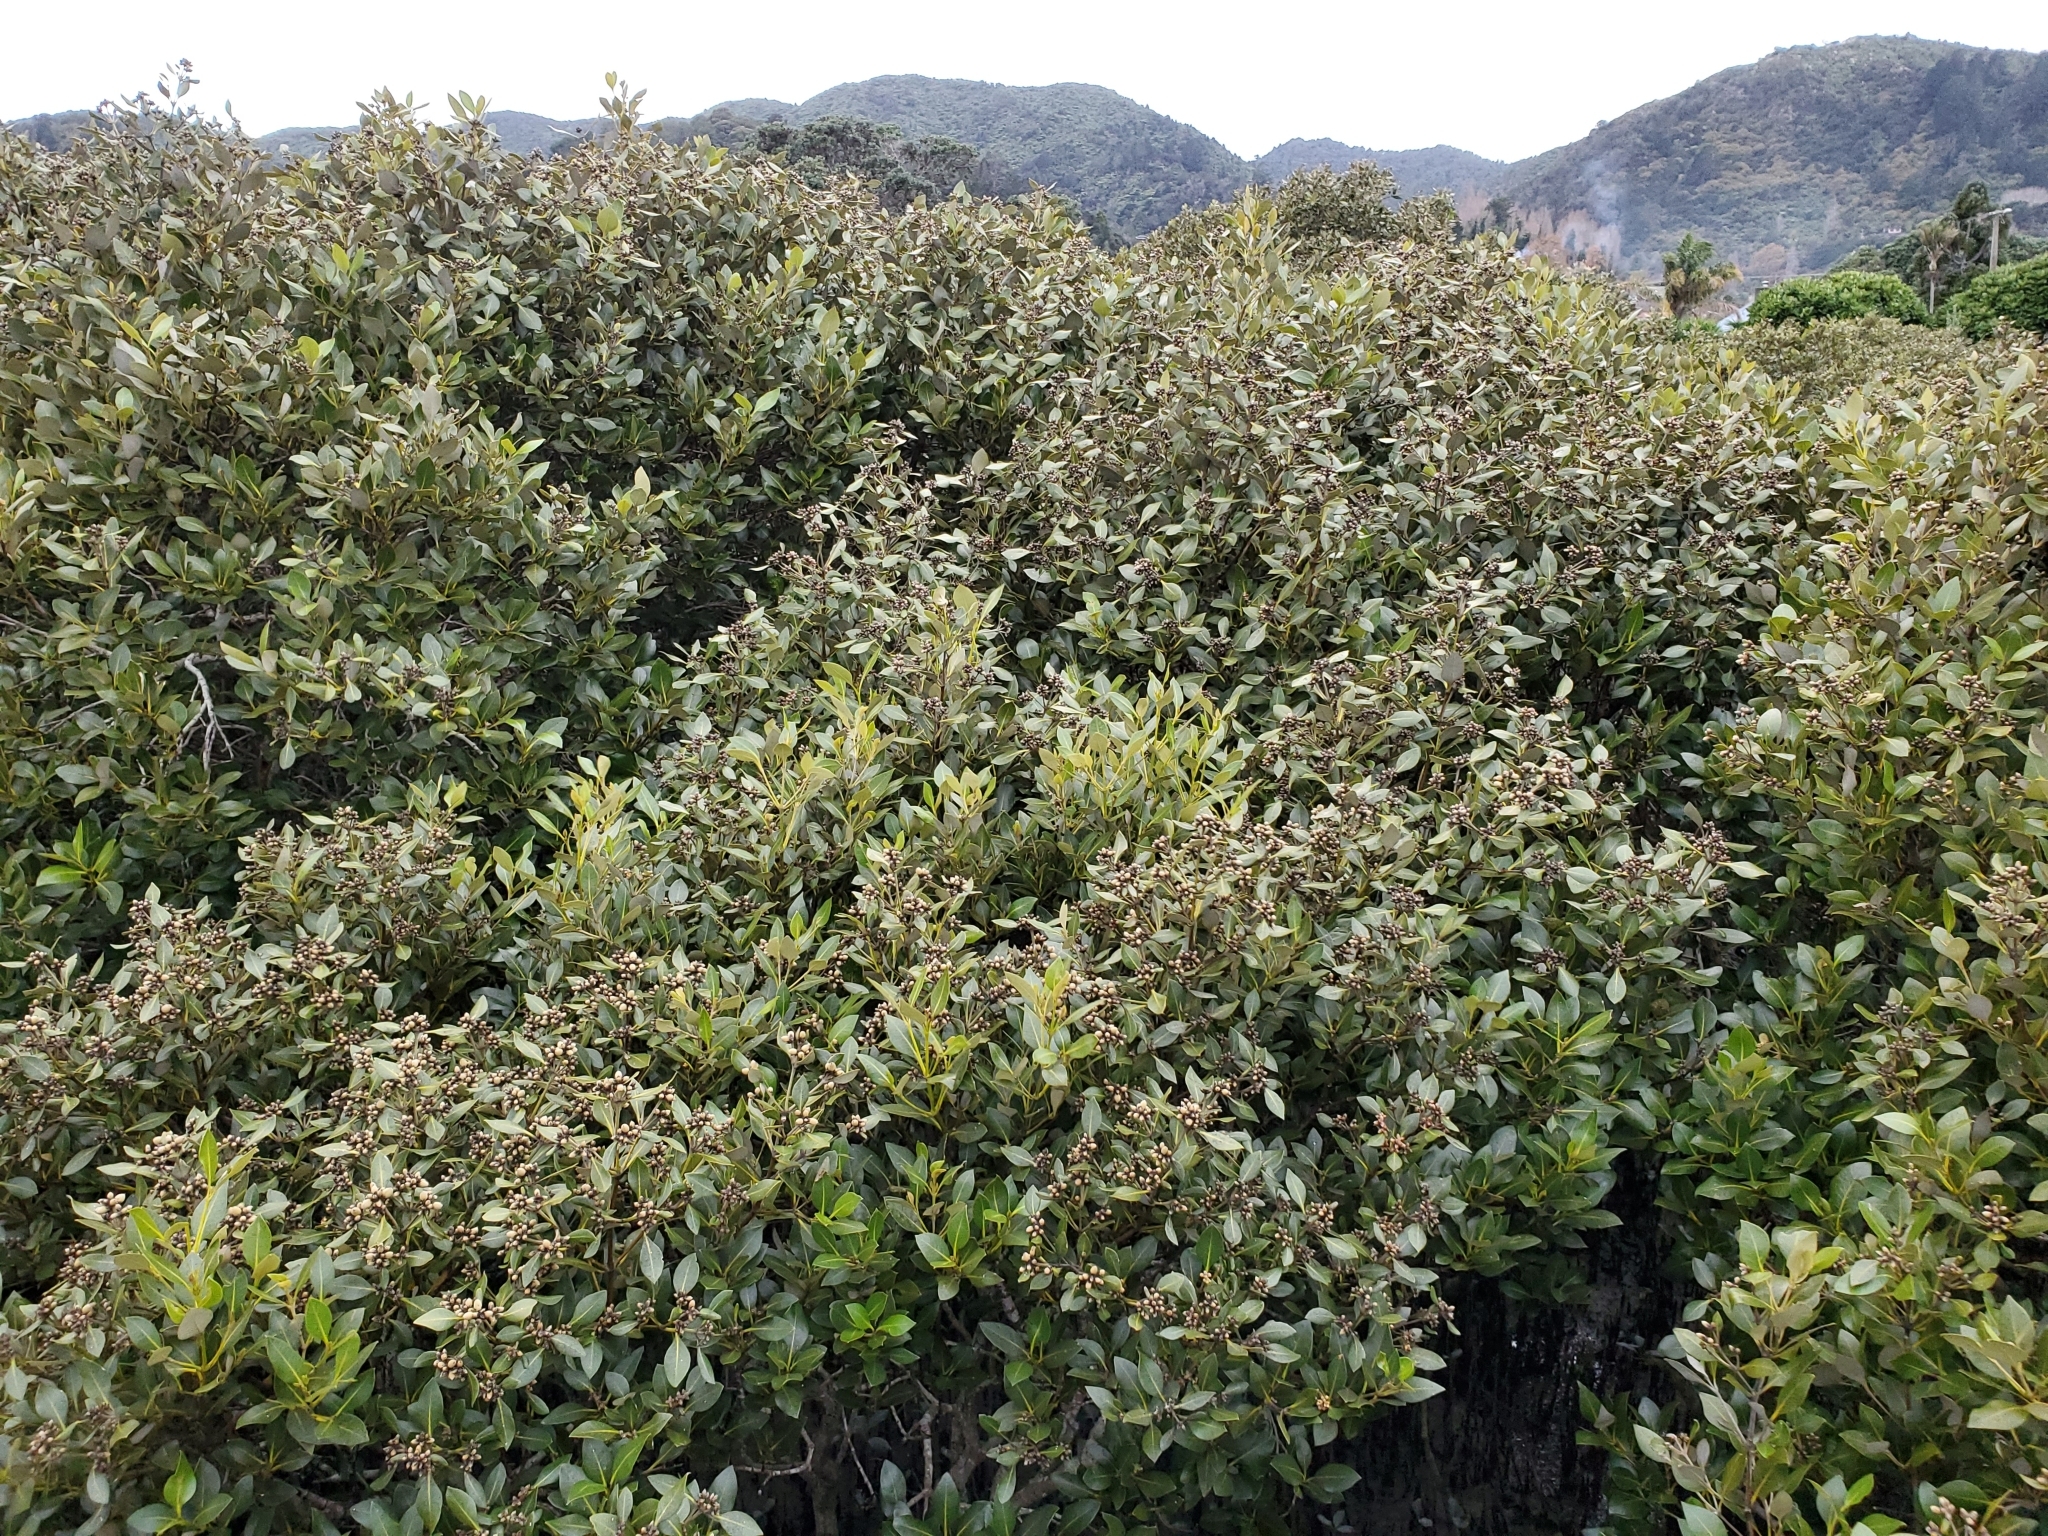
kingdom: Plantae
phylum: Tracheophyta
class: Magnoliopsida
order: Lamiales
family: Acanthaceae
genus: Avicennia
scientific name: Avicennia marina
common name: Gray mangrove
